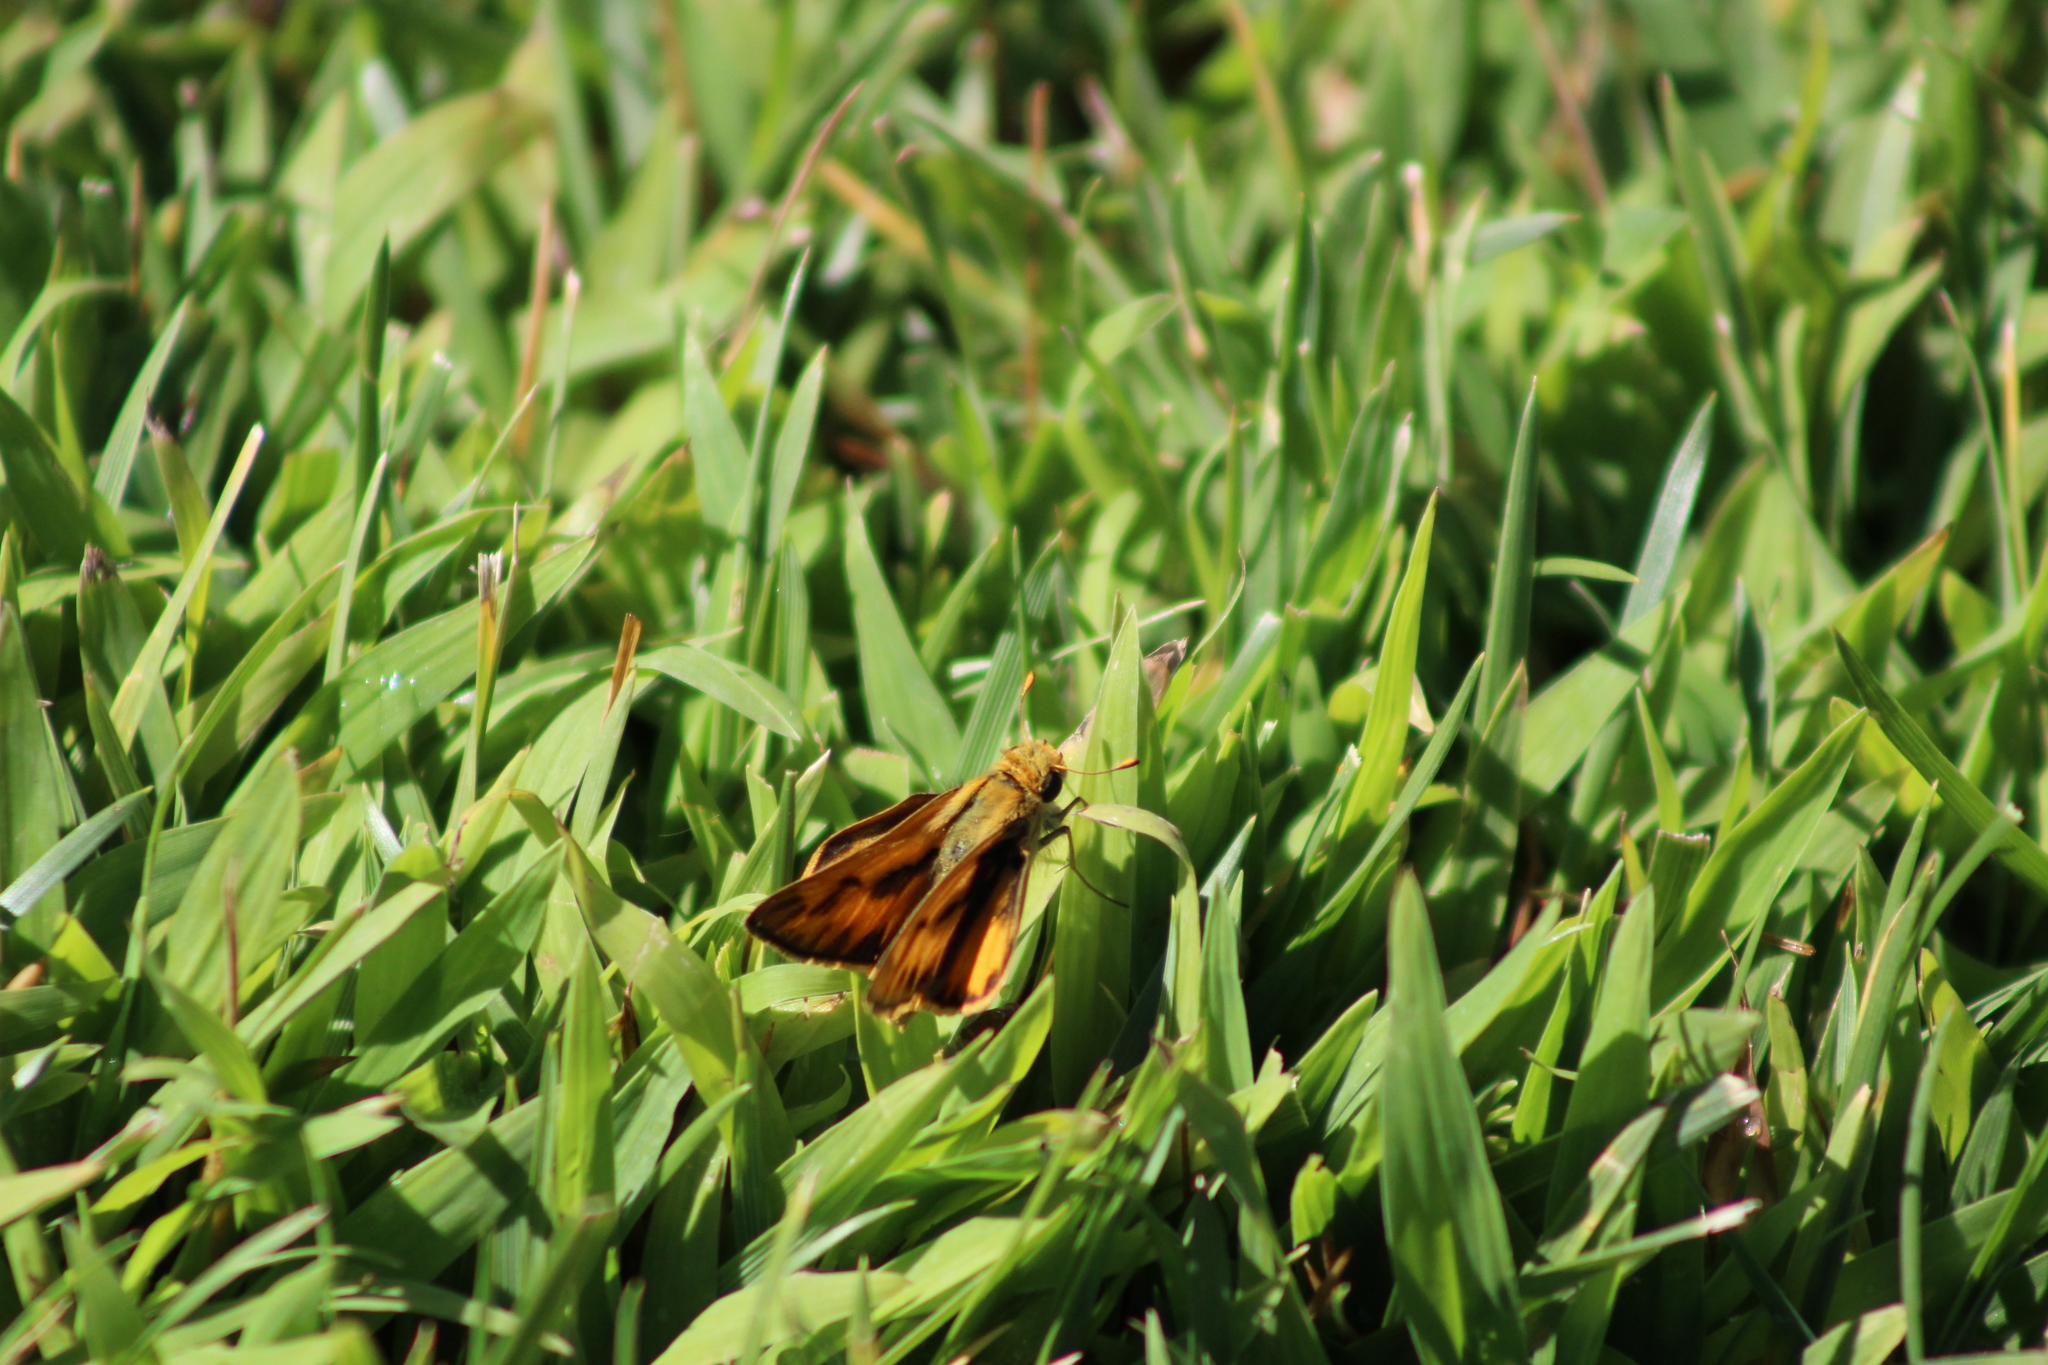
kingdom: Animalia
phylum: Arthropoda
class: Insecta
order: Lepidoptera
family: Hesperiidae
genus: Hylephila
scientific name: Hylephila phyleus
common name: Fiery skipper
